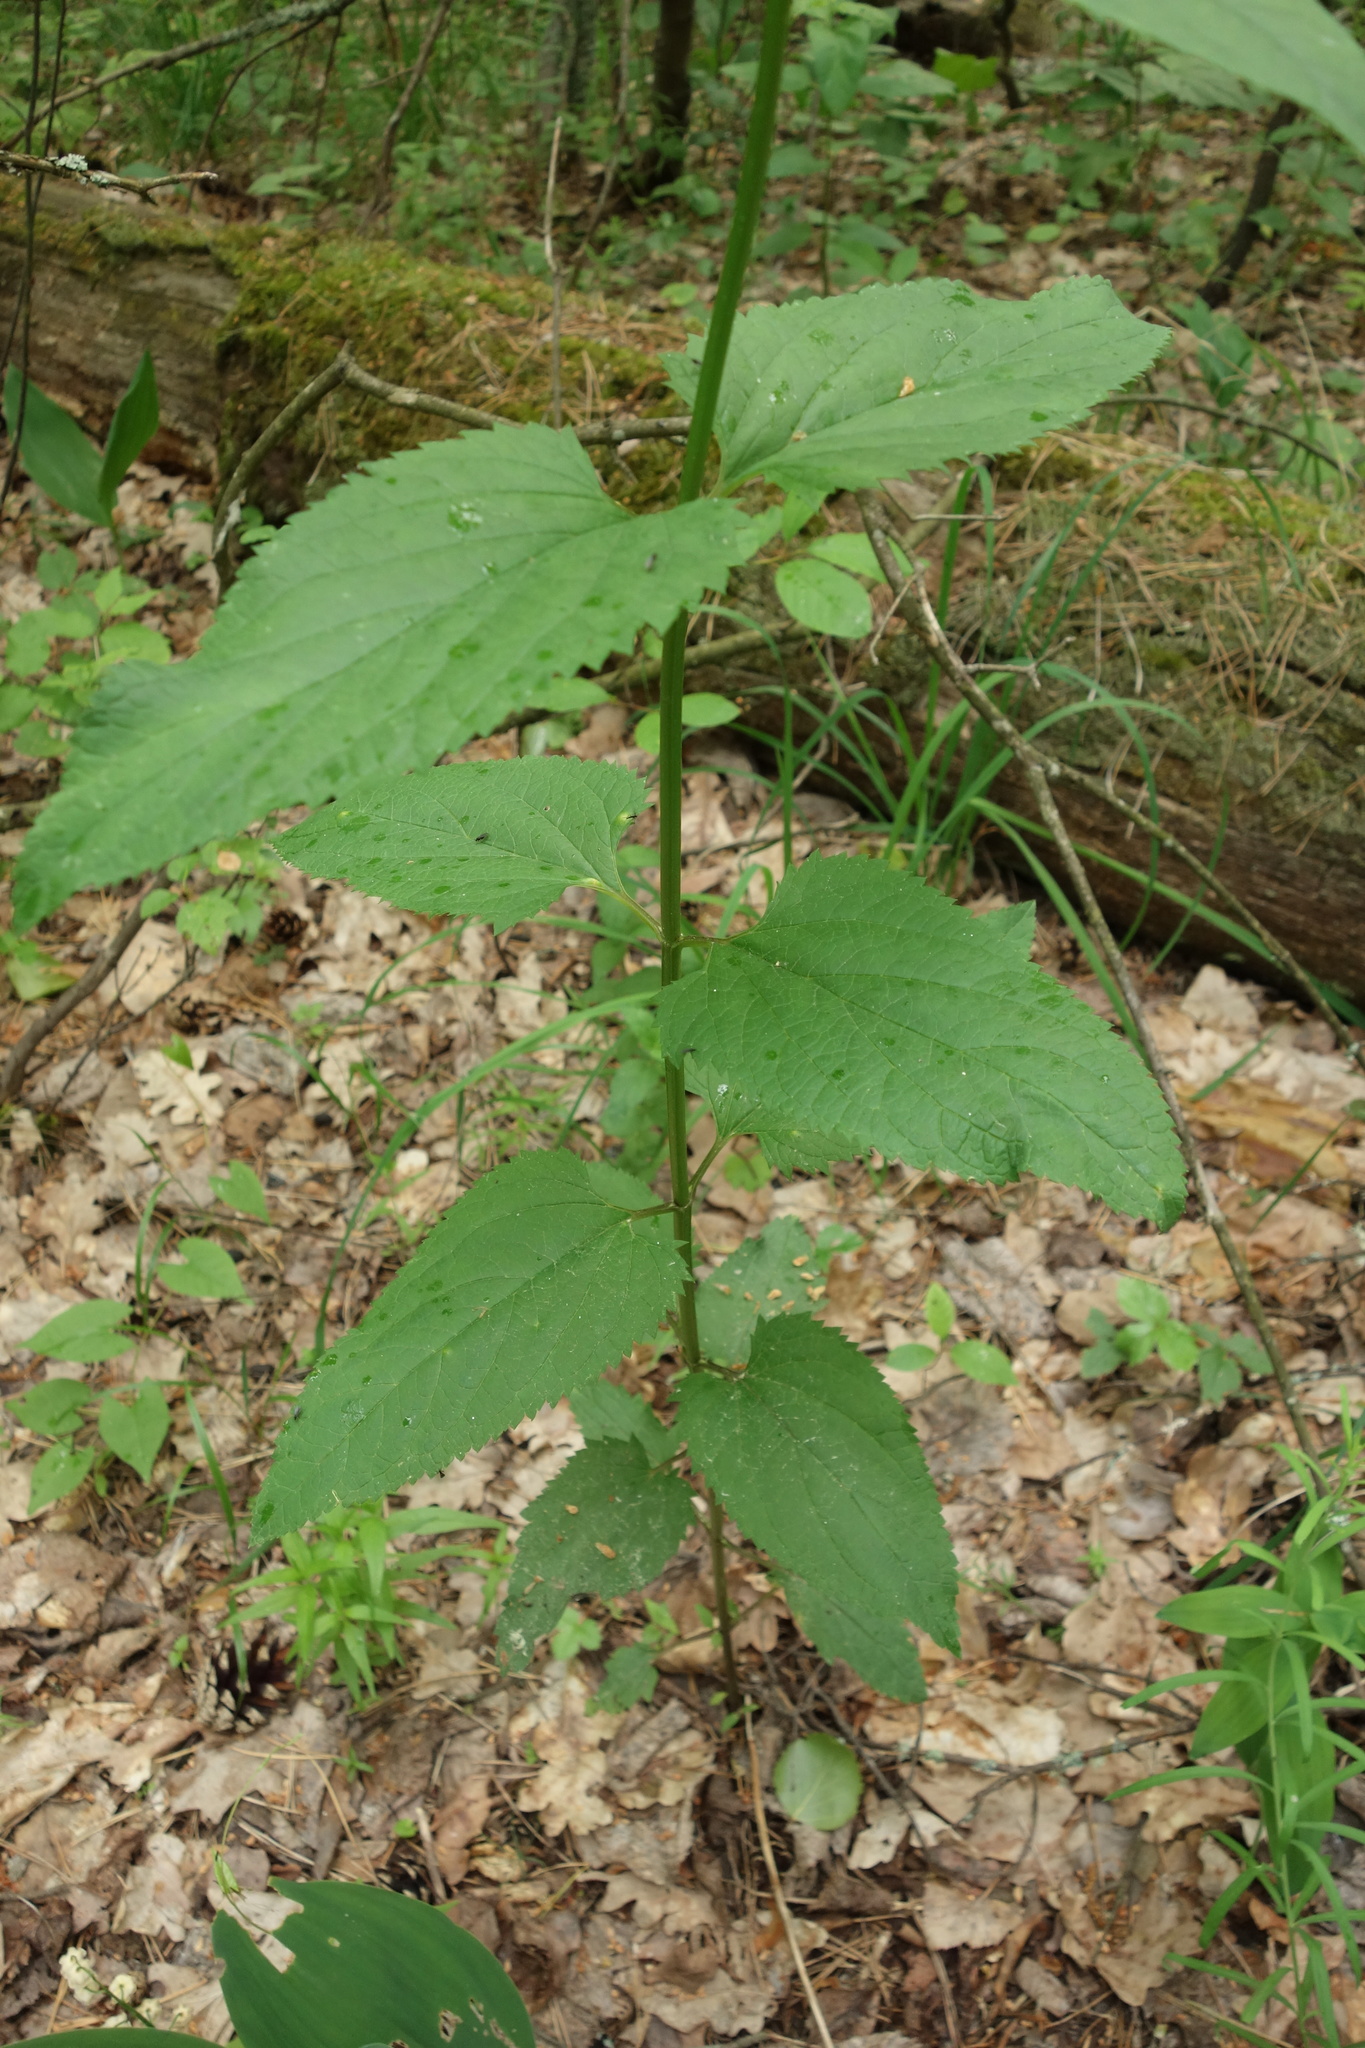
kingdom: Plantae
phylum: Tracheophyta
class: Magnoliopsida
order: Lamiales
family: Scrophulariaceae
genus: Scrophularia
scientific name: Scrophularia nodosa
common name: Common figwort
